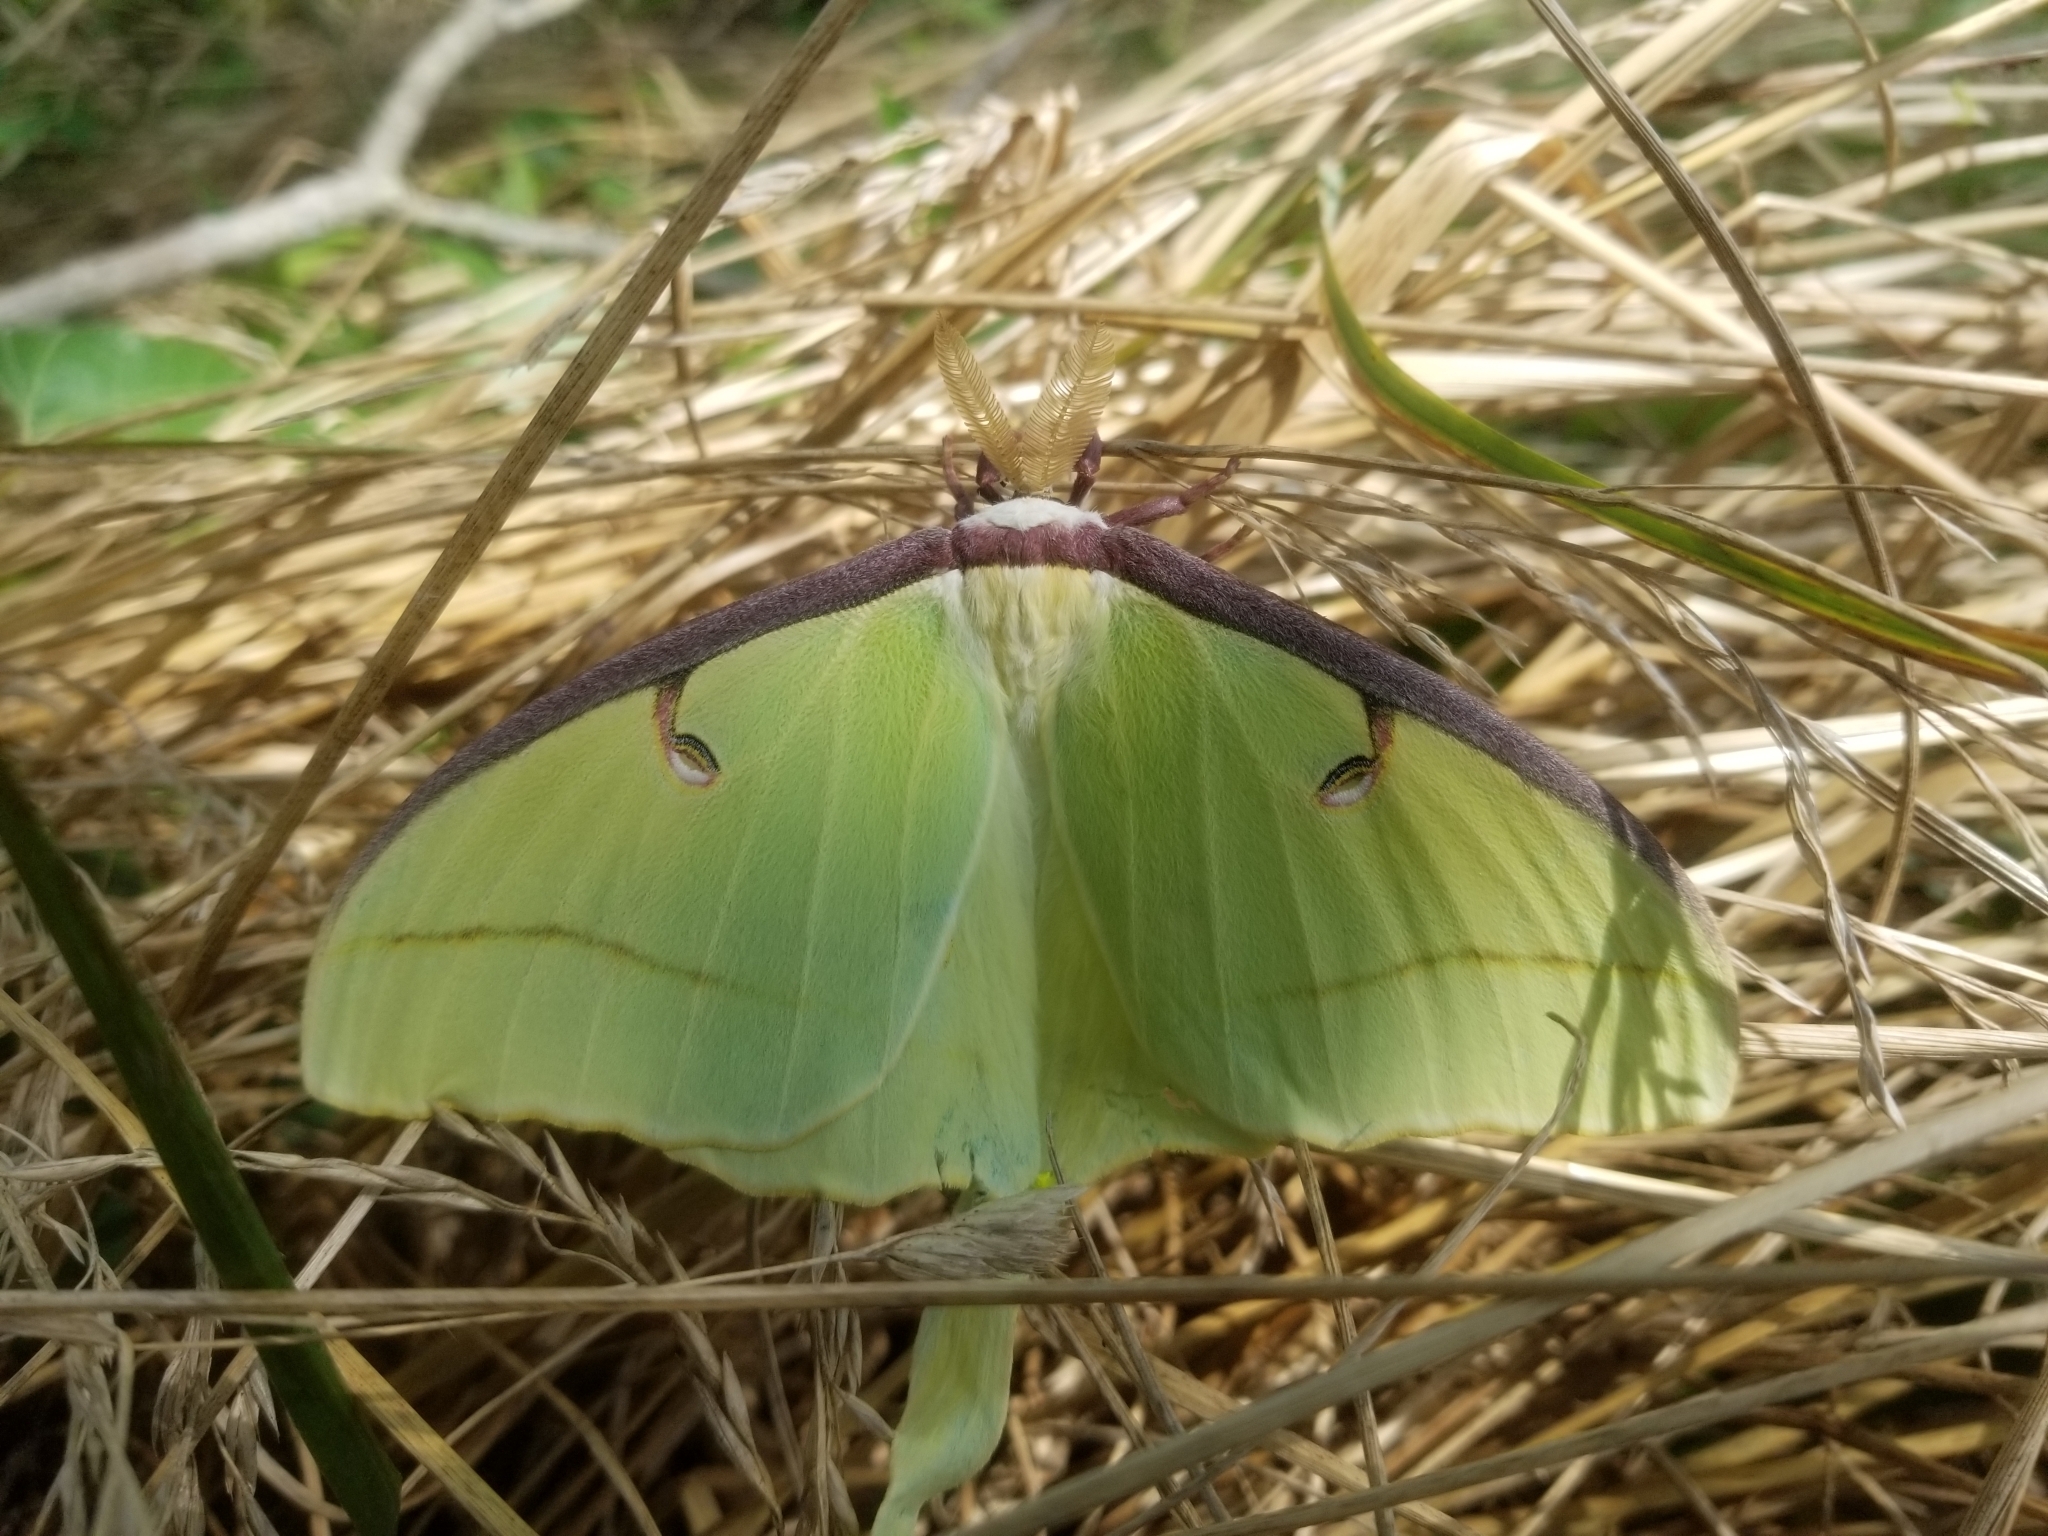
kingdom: Animalia
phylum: Arthropoda
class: Insecta
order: Lepidoptera
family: Saturniidae
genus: Actias
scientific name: Actias luna
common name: Luna moth
